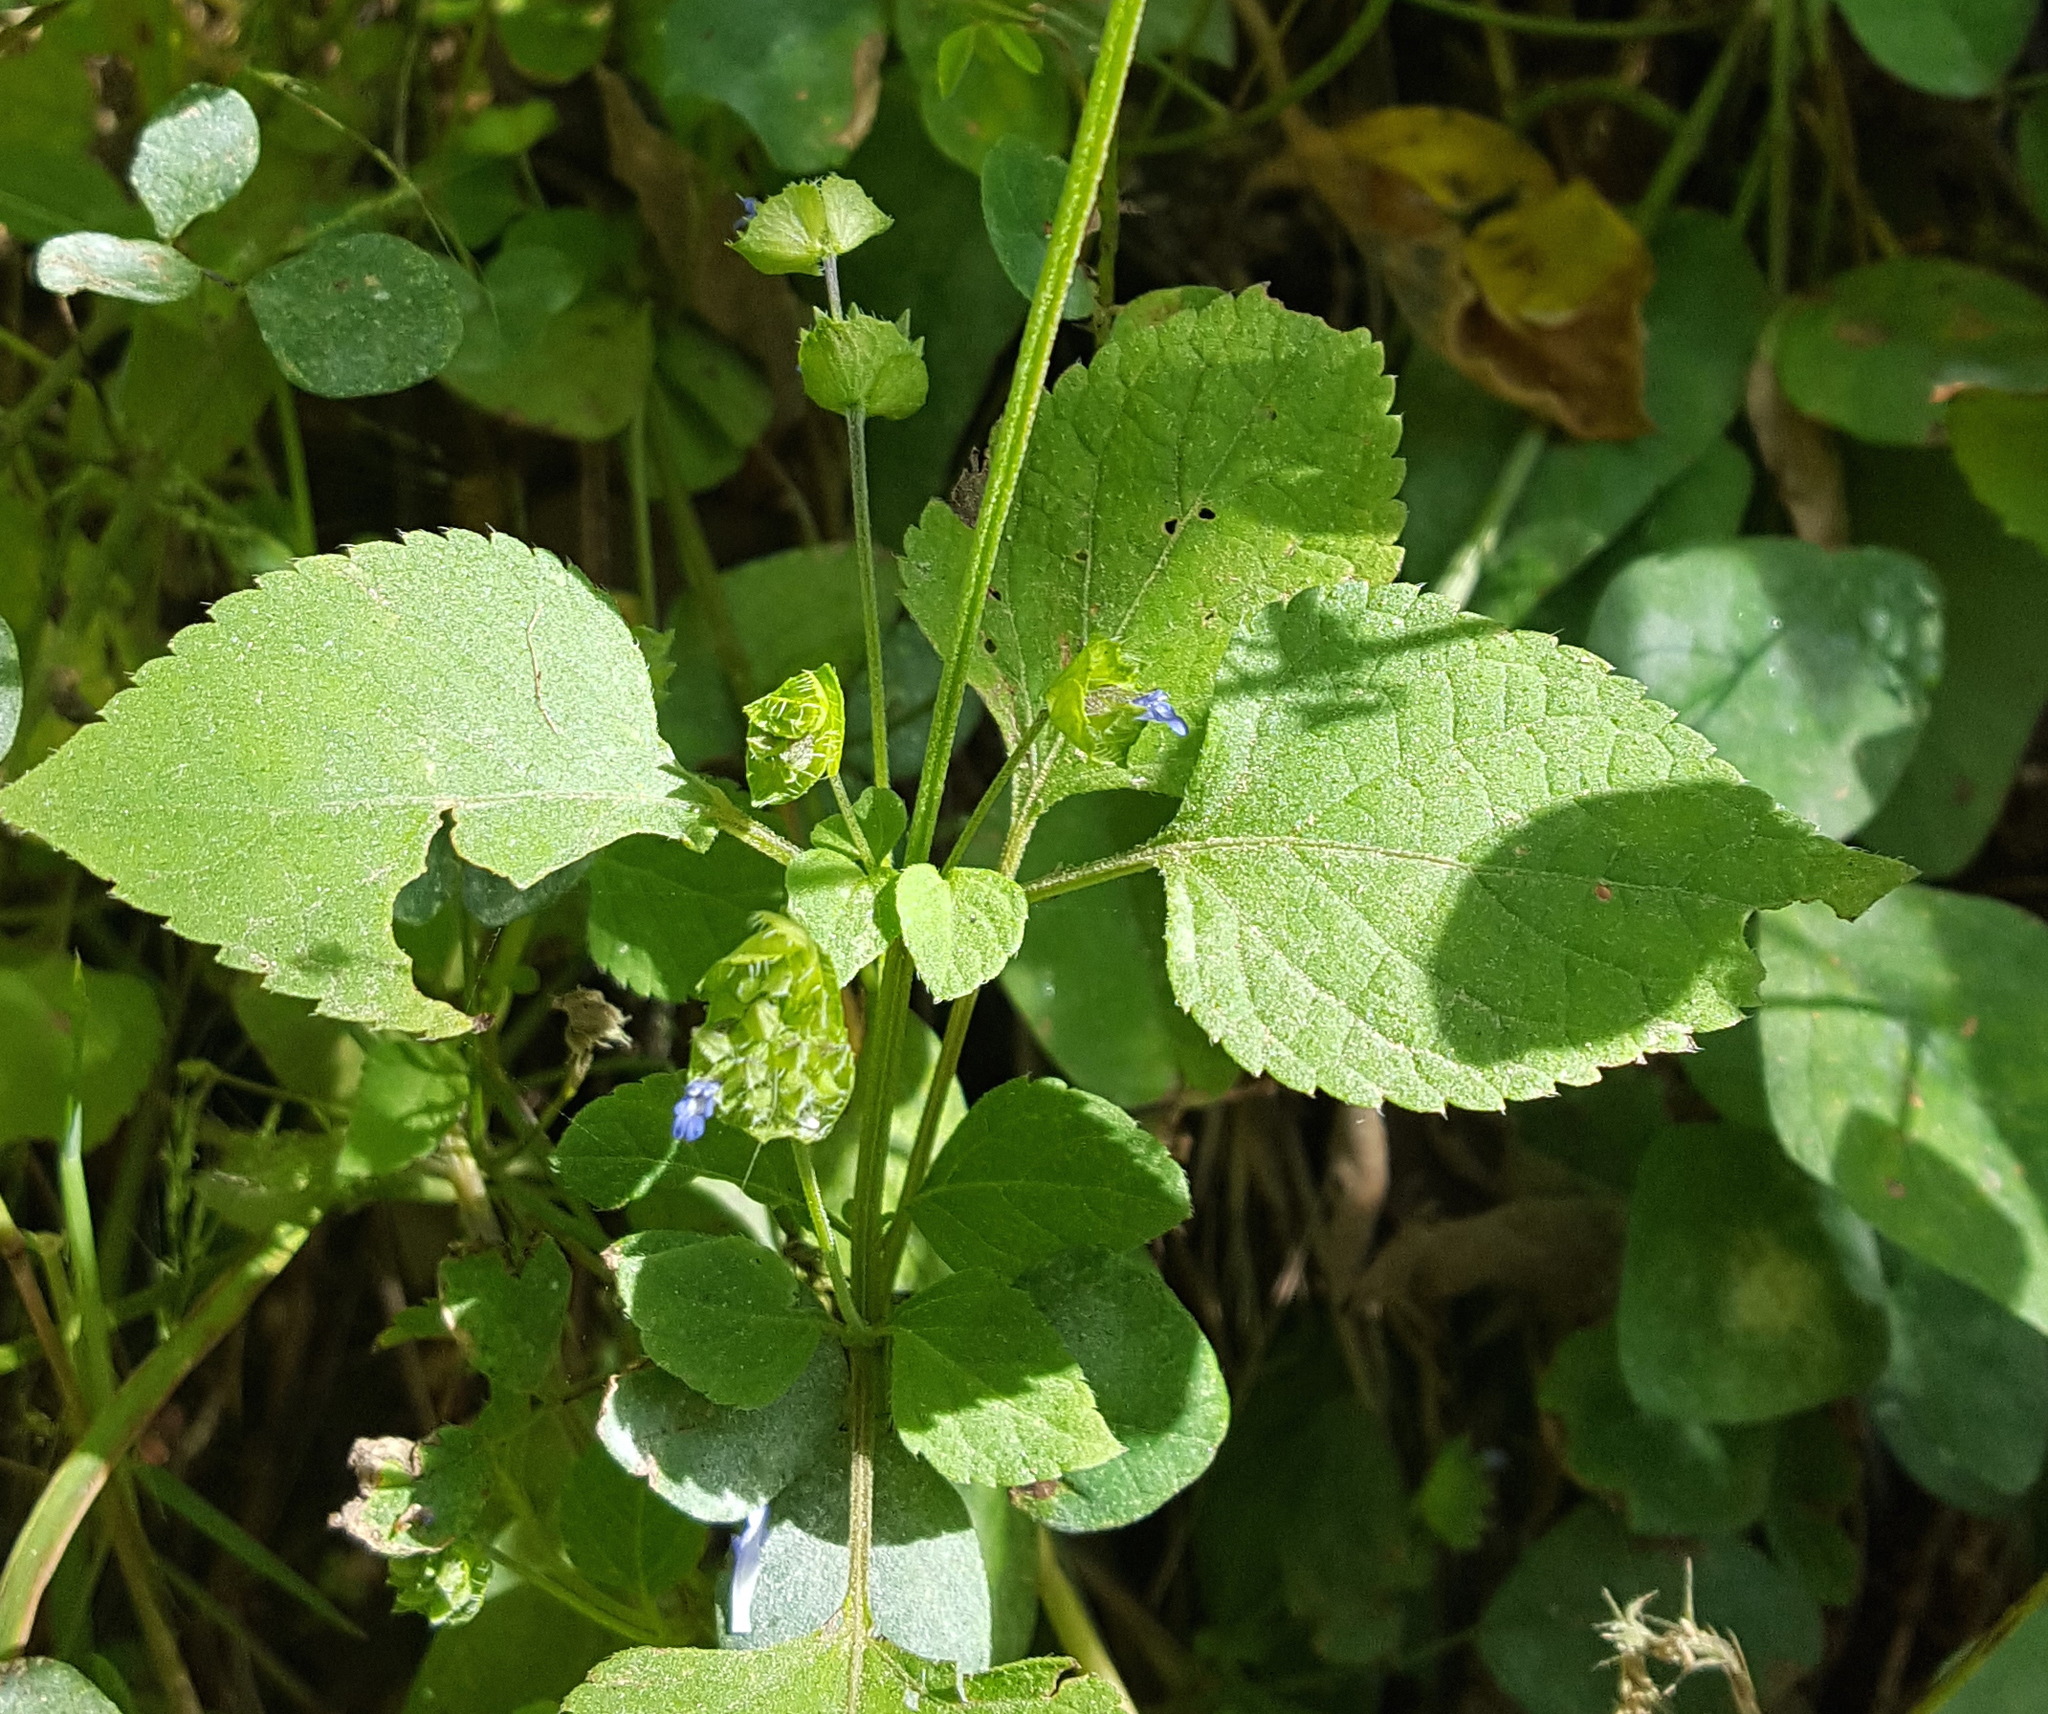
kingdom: Plantae
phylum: Tracheophyta
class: Magnoliopsida
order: Lamiales
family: Lamiaceae
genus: Salvia
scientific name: Salvia lasiocephala
